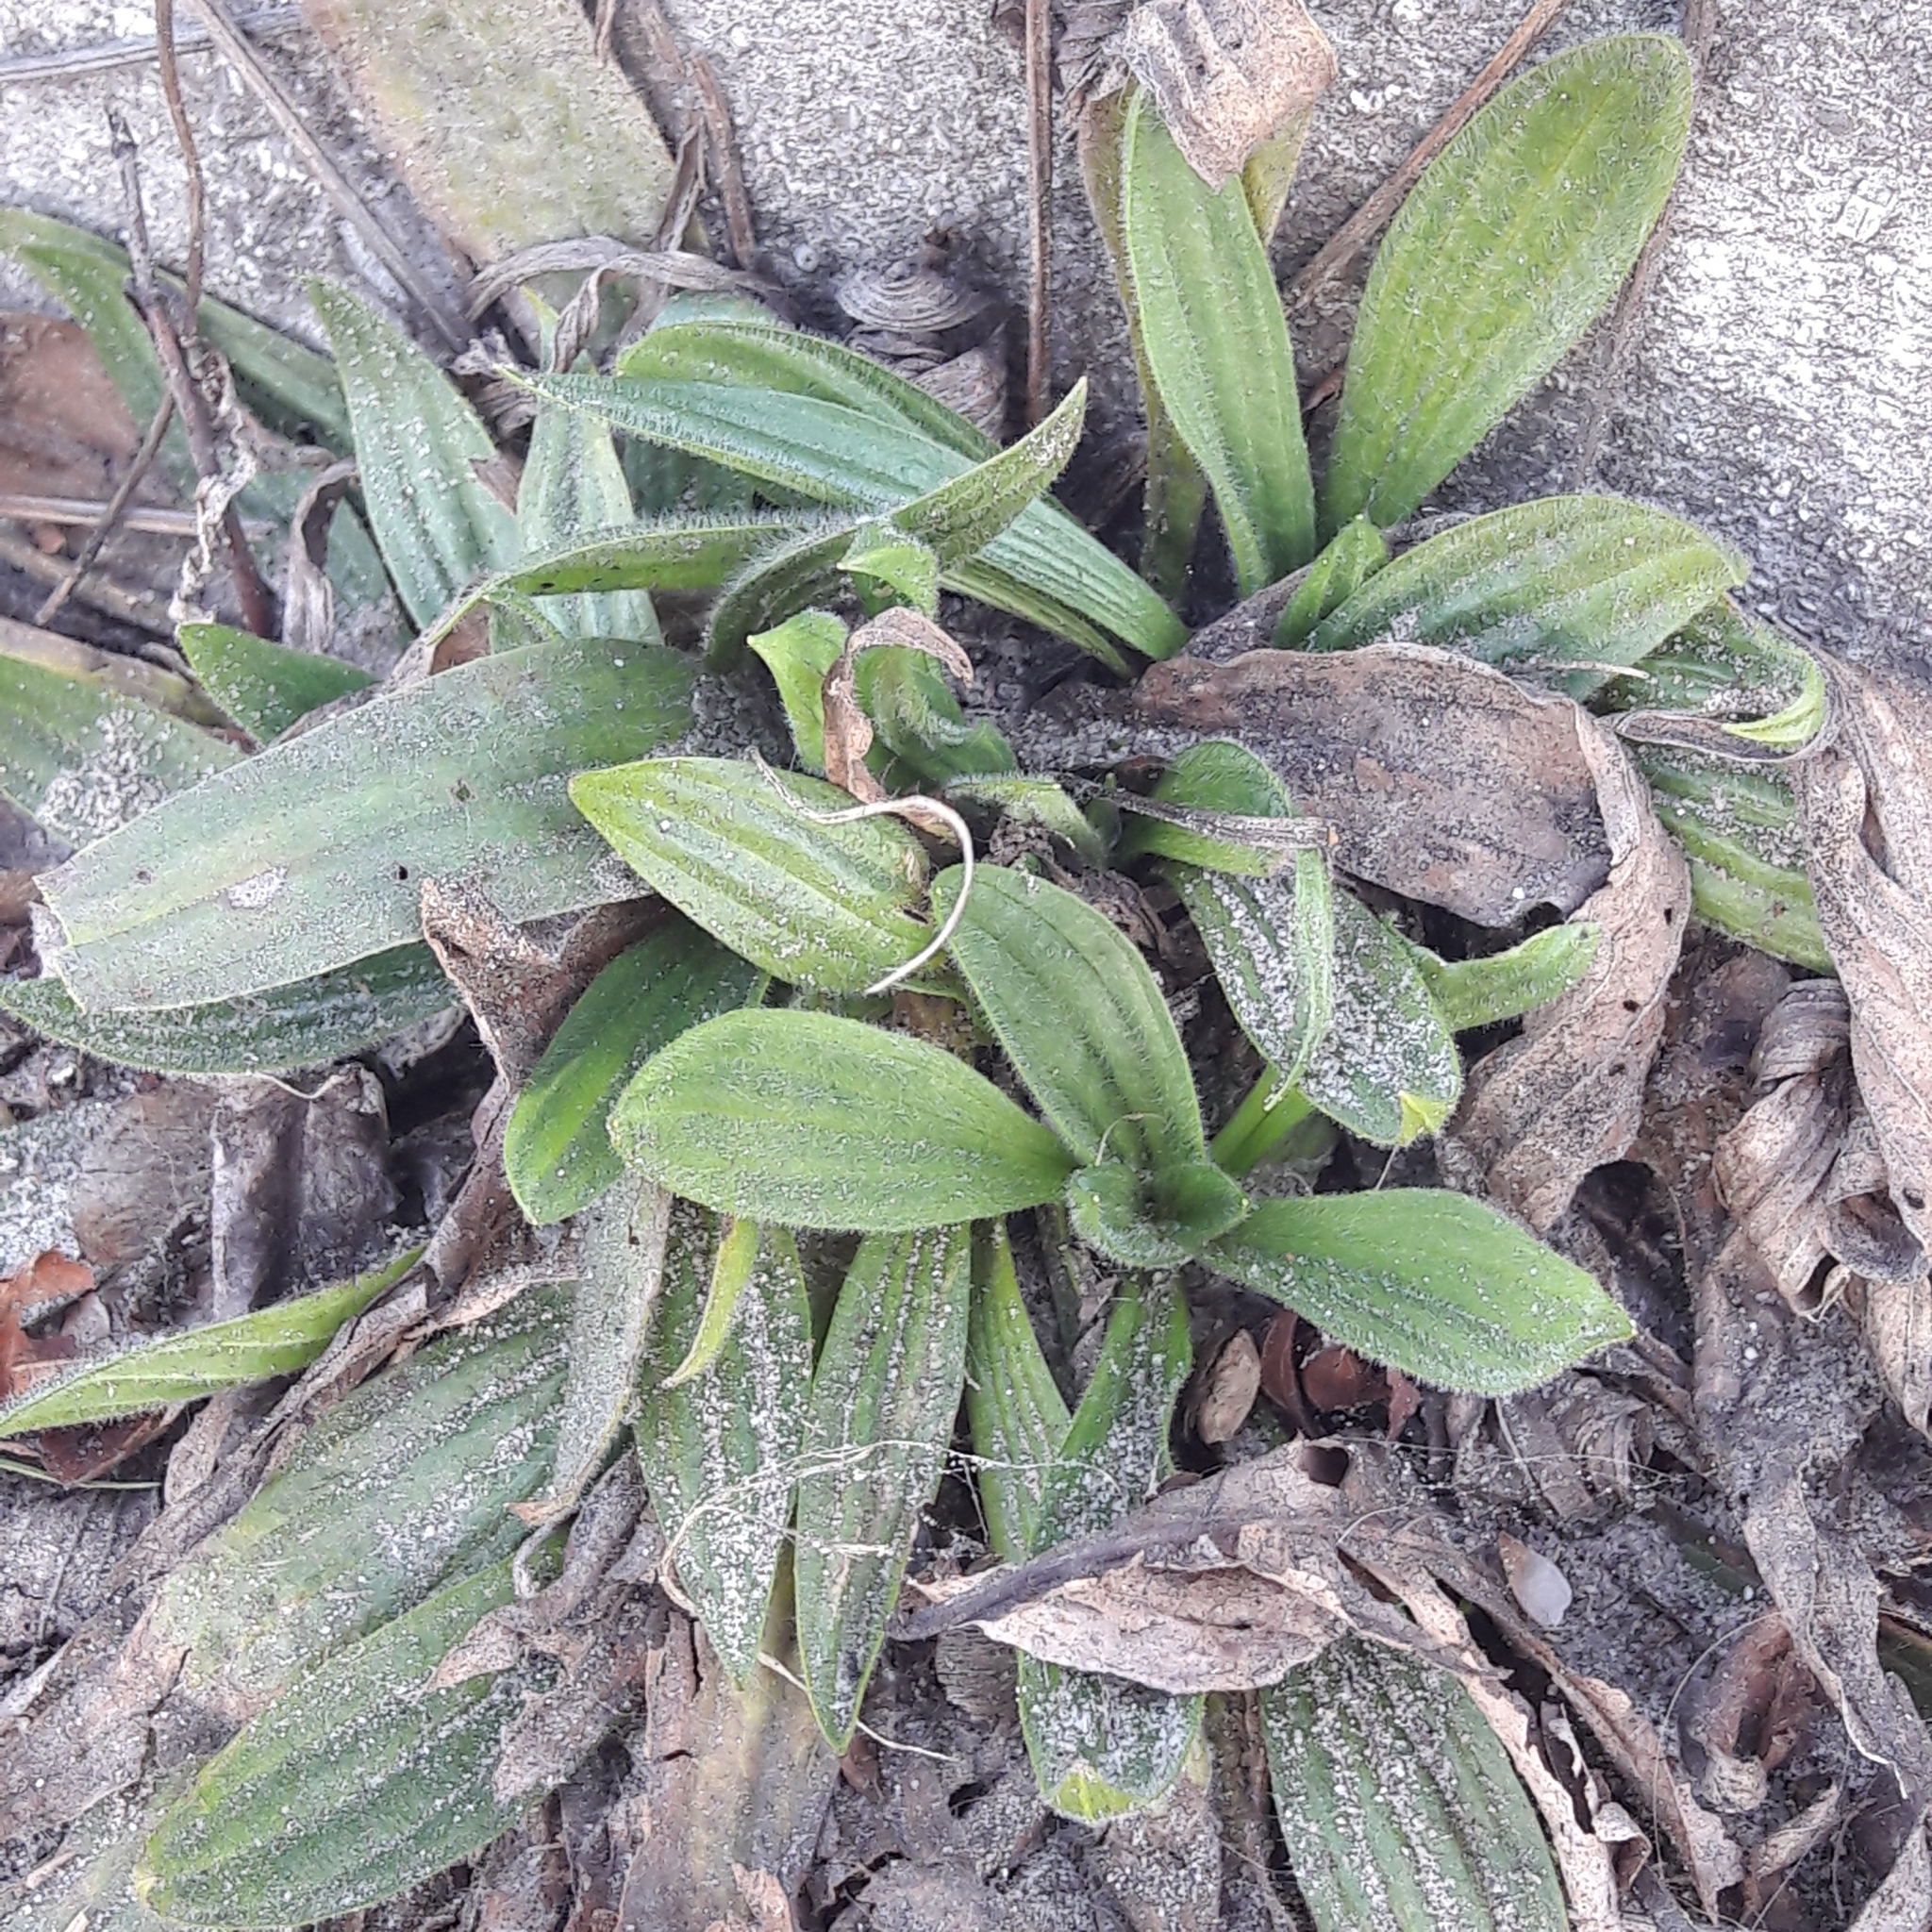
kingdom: Plantae
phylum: Tracheophyta
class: Magnoliopsida
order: Lamiales
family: Plantaginaceae
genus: Plantago
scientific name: Plantago lanceolata
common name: Ribwort plantain
